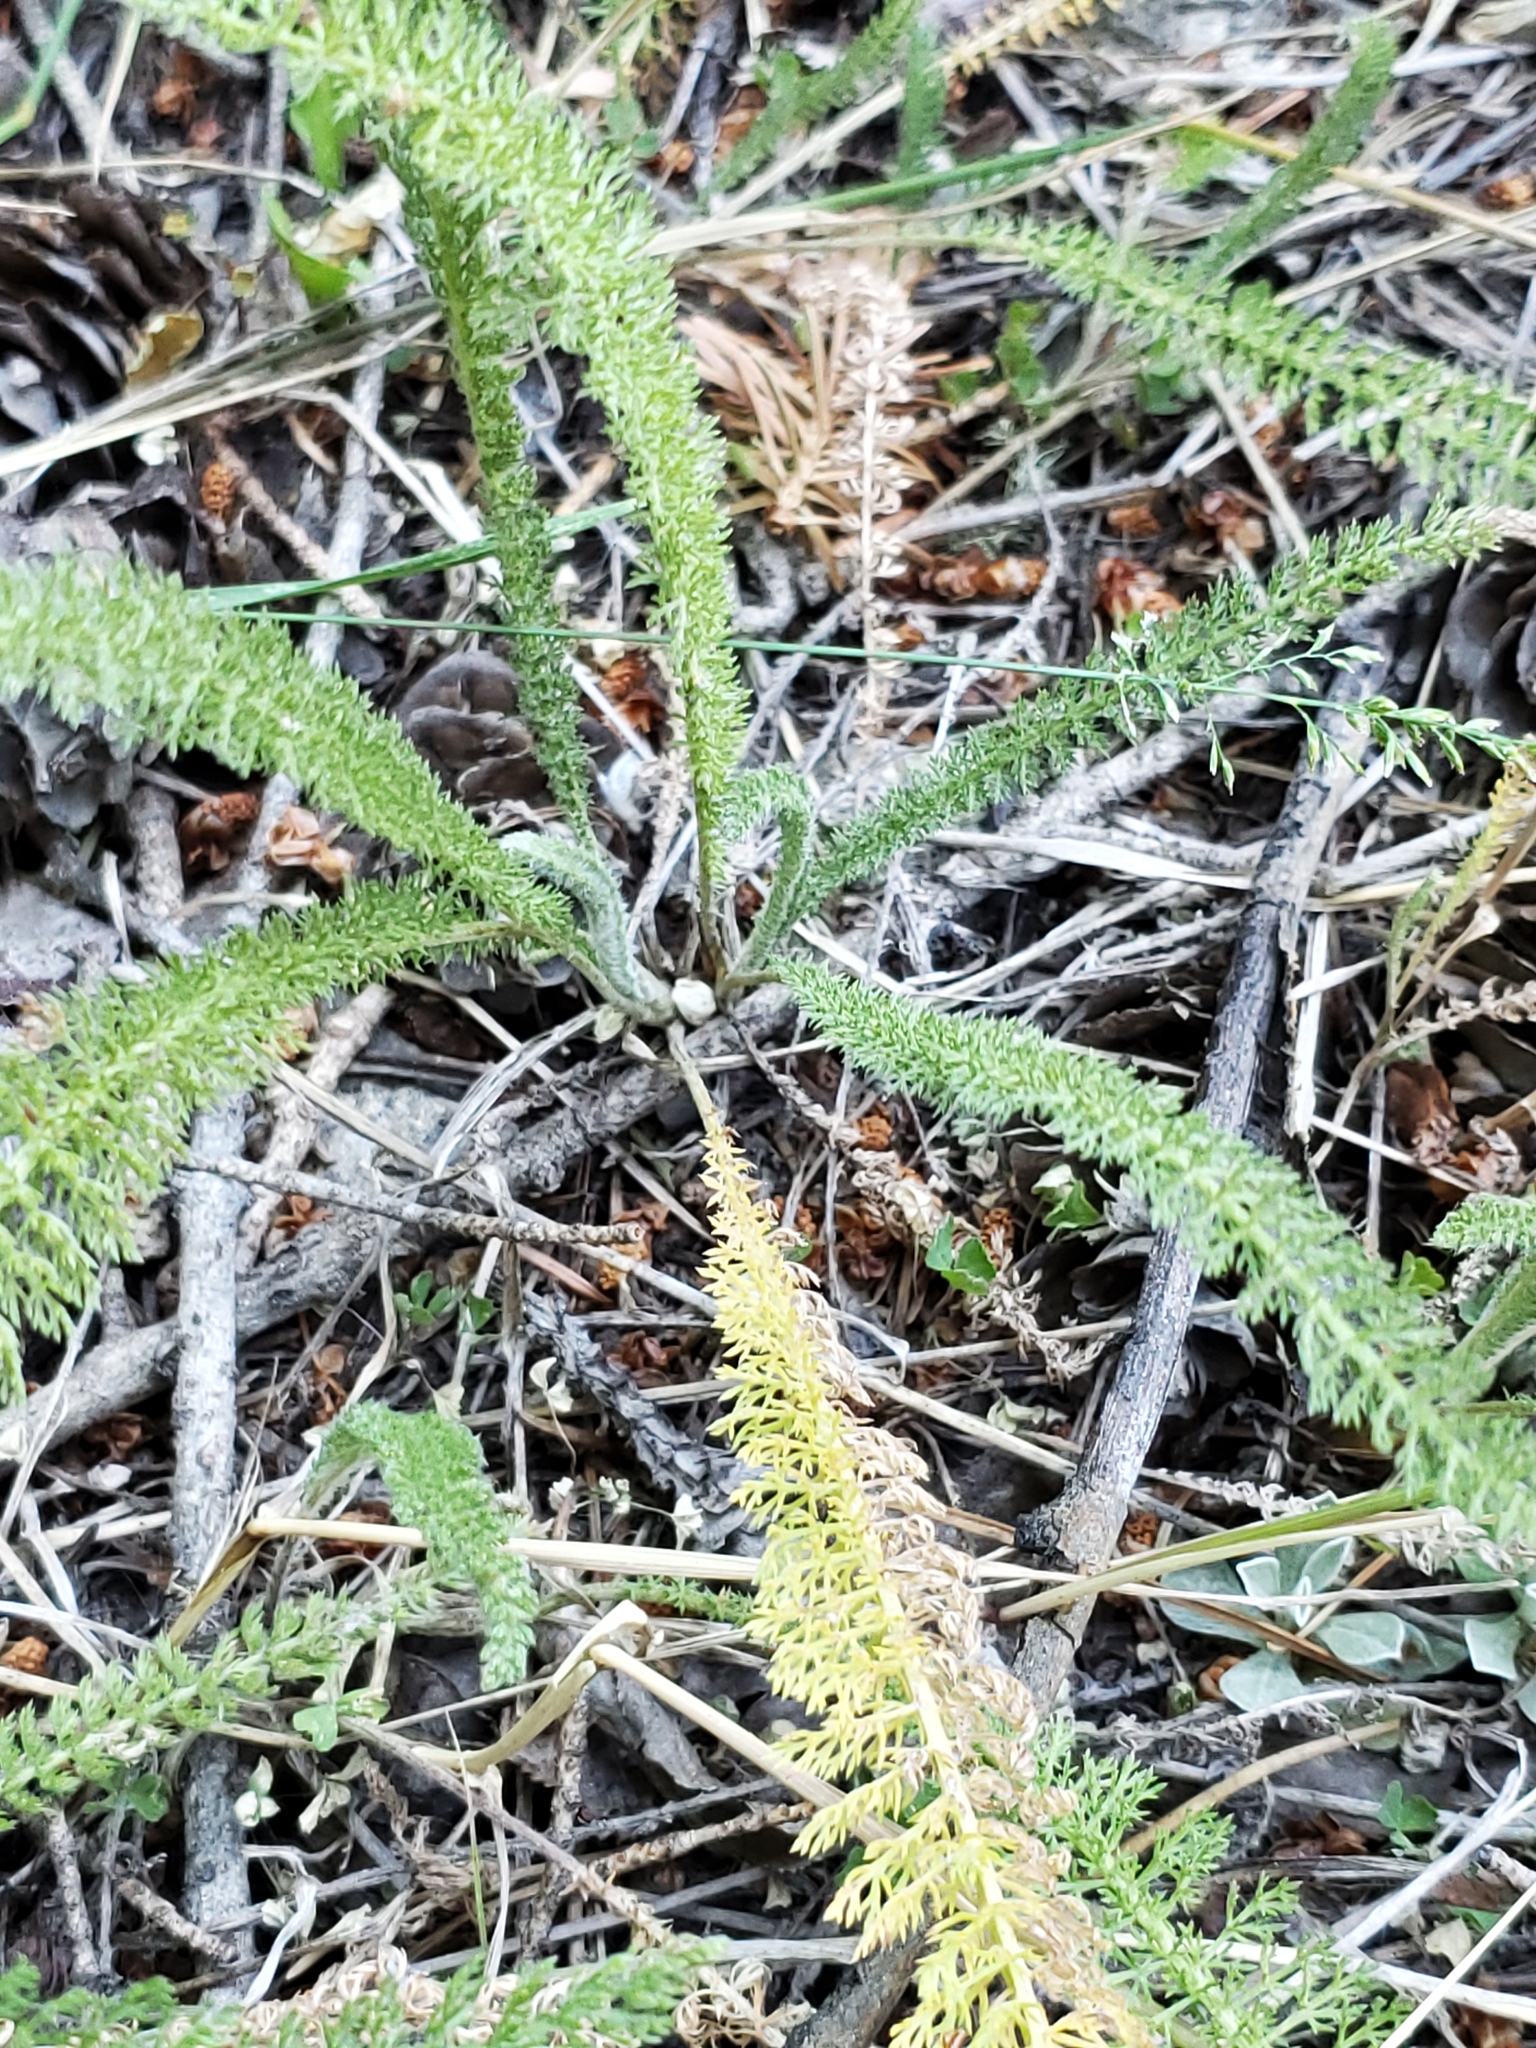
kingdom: Plantae
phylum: Tracheophyta
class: Magnoliopsida
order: Asterales
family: Asteraceae
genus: Achillea
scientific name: Achillea millefolium
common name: Yarrow
